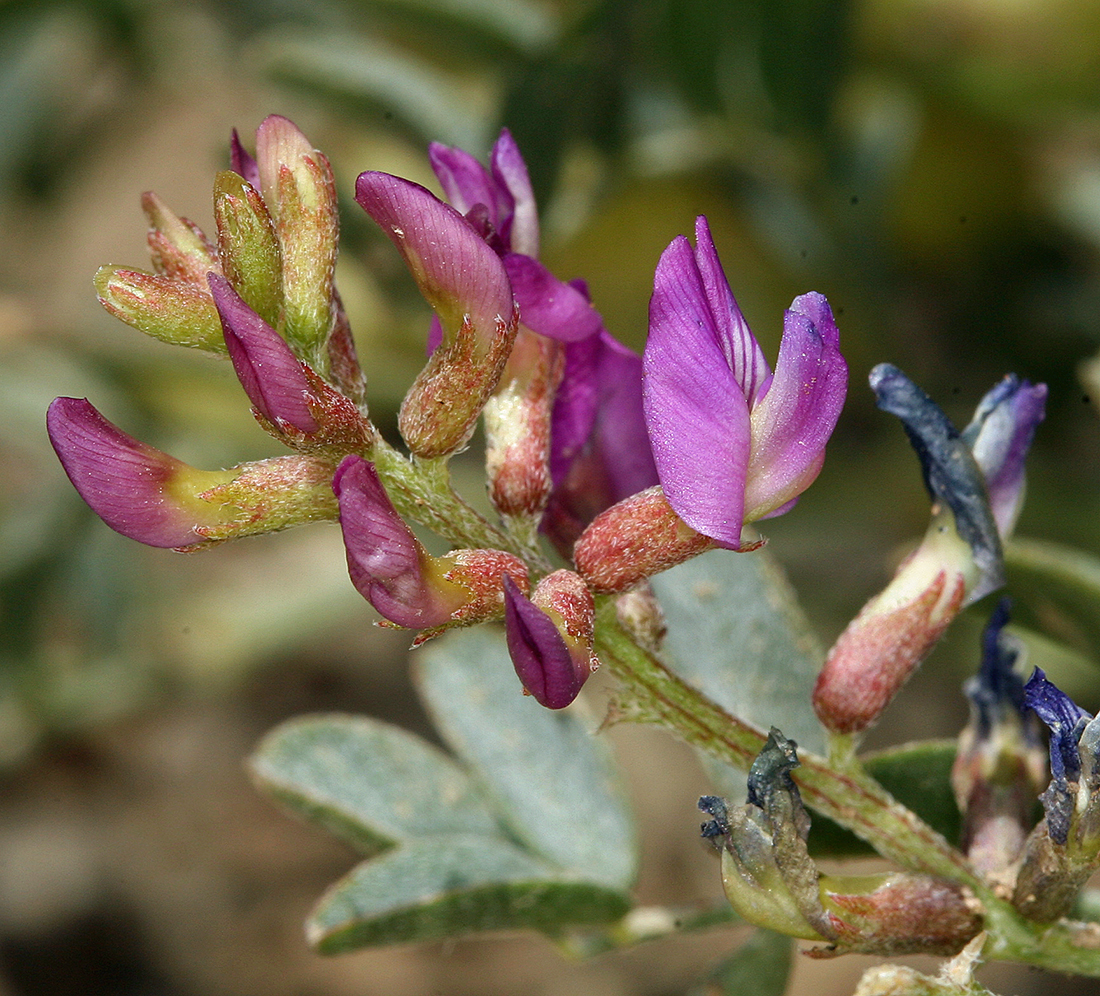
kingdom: Plantae
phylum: Tracheophyta
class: Magnoliopsida
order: Fabales
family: Fabaceae
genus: Astragalus
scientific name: Astragalus lentiginosus
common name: Freckled milkvetch
